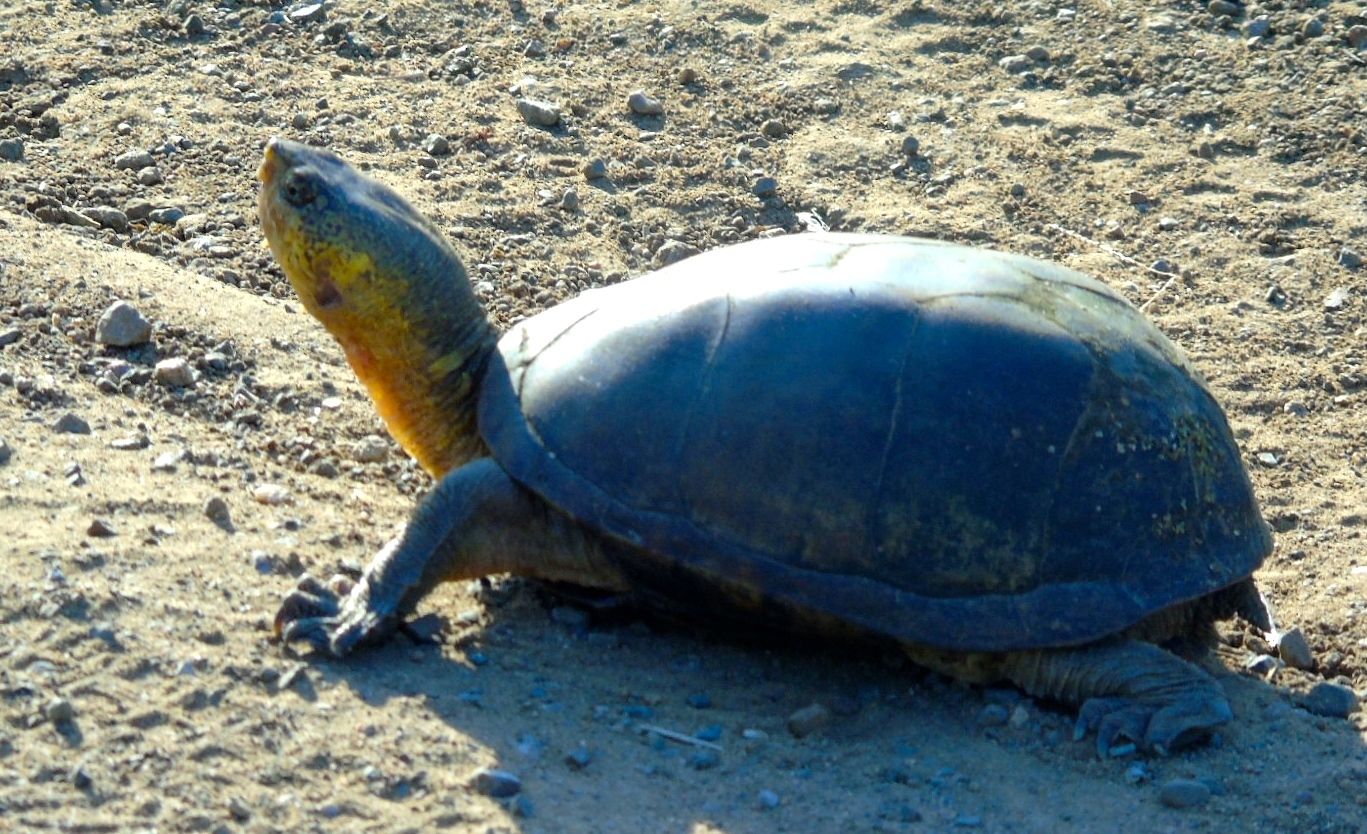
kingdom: Animalia
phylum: Chordata
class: Testudines
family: Kinosternidae
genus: Kinosternon
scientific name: Kinosternon integrum
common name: Mexican mud turtle
